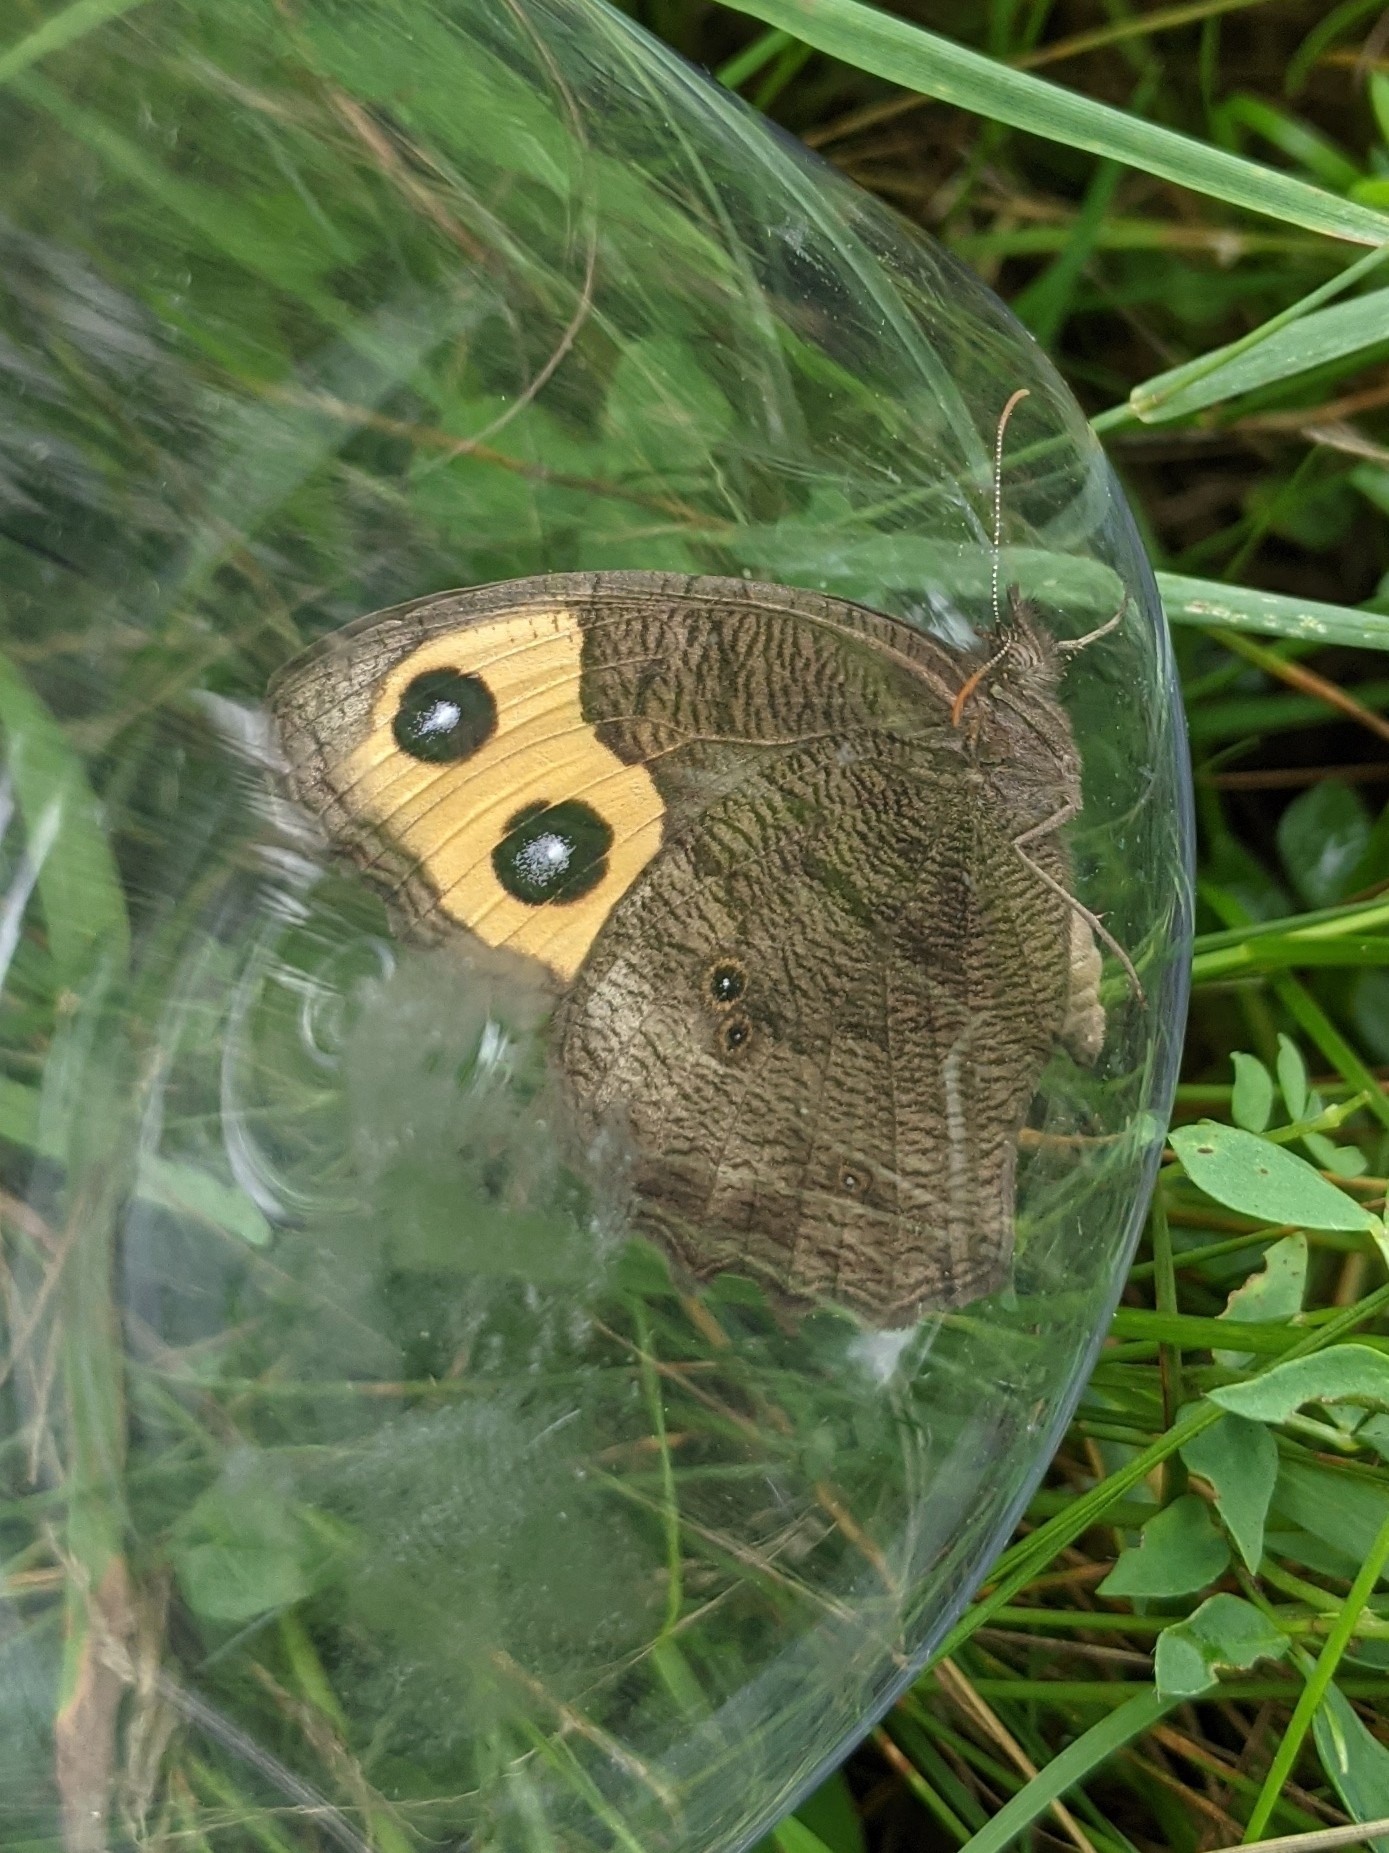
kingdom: Animalia
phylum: Arthropoda
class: Insecta
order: Lepidoptera
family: Nymphalidae
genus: Cercyonis
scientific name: Cercyonis pegala
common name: Common wood-nymph
